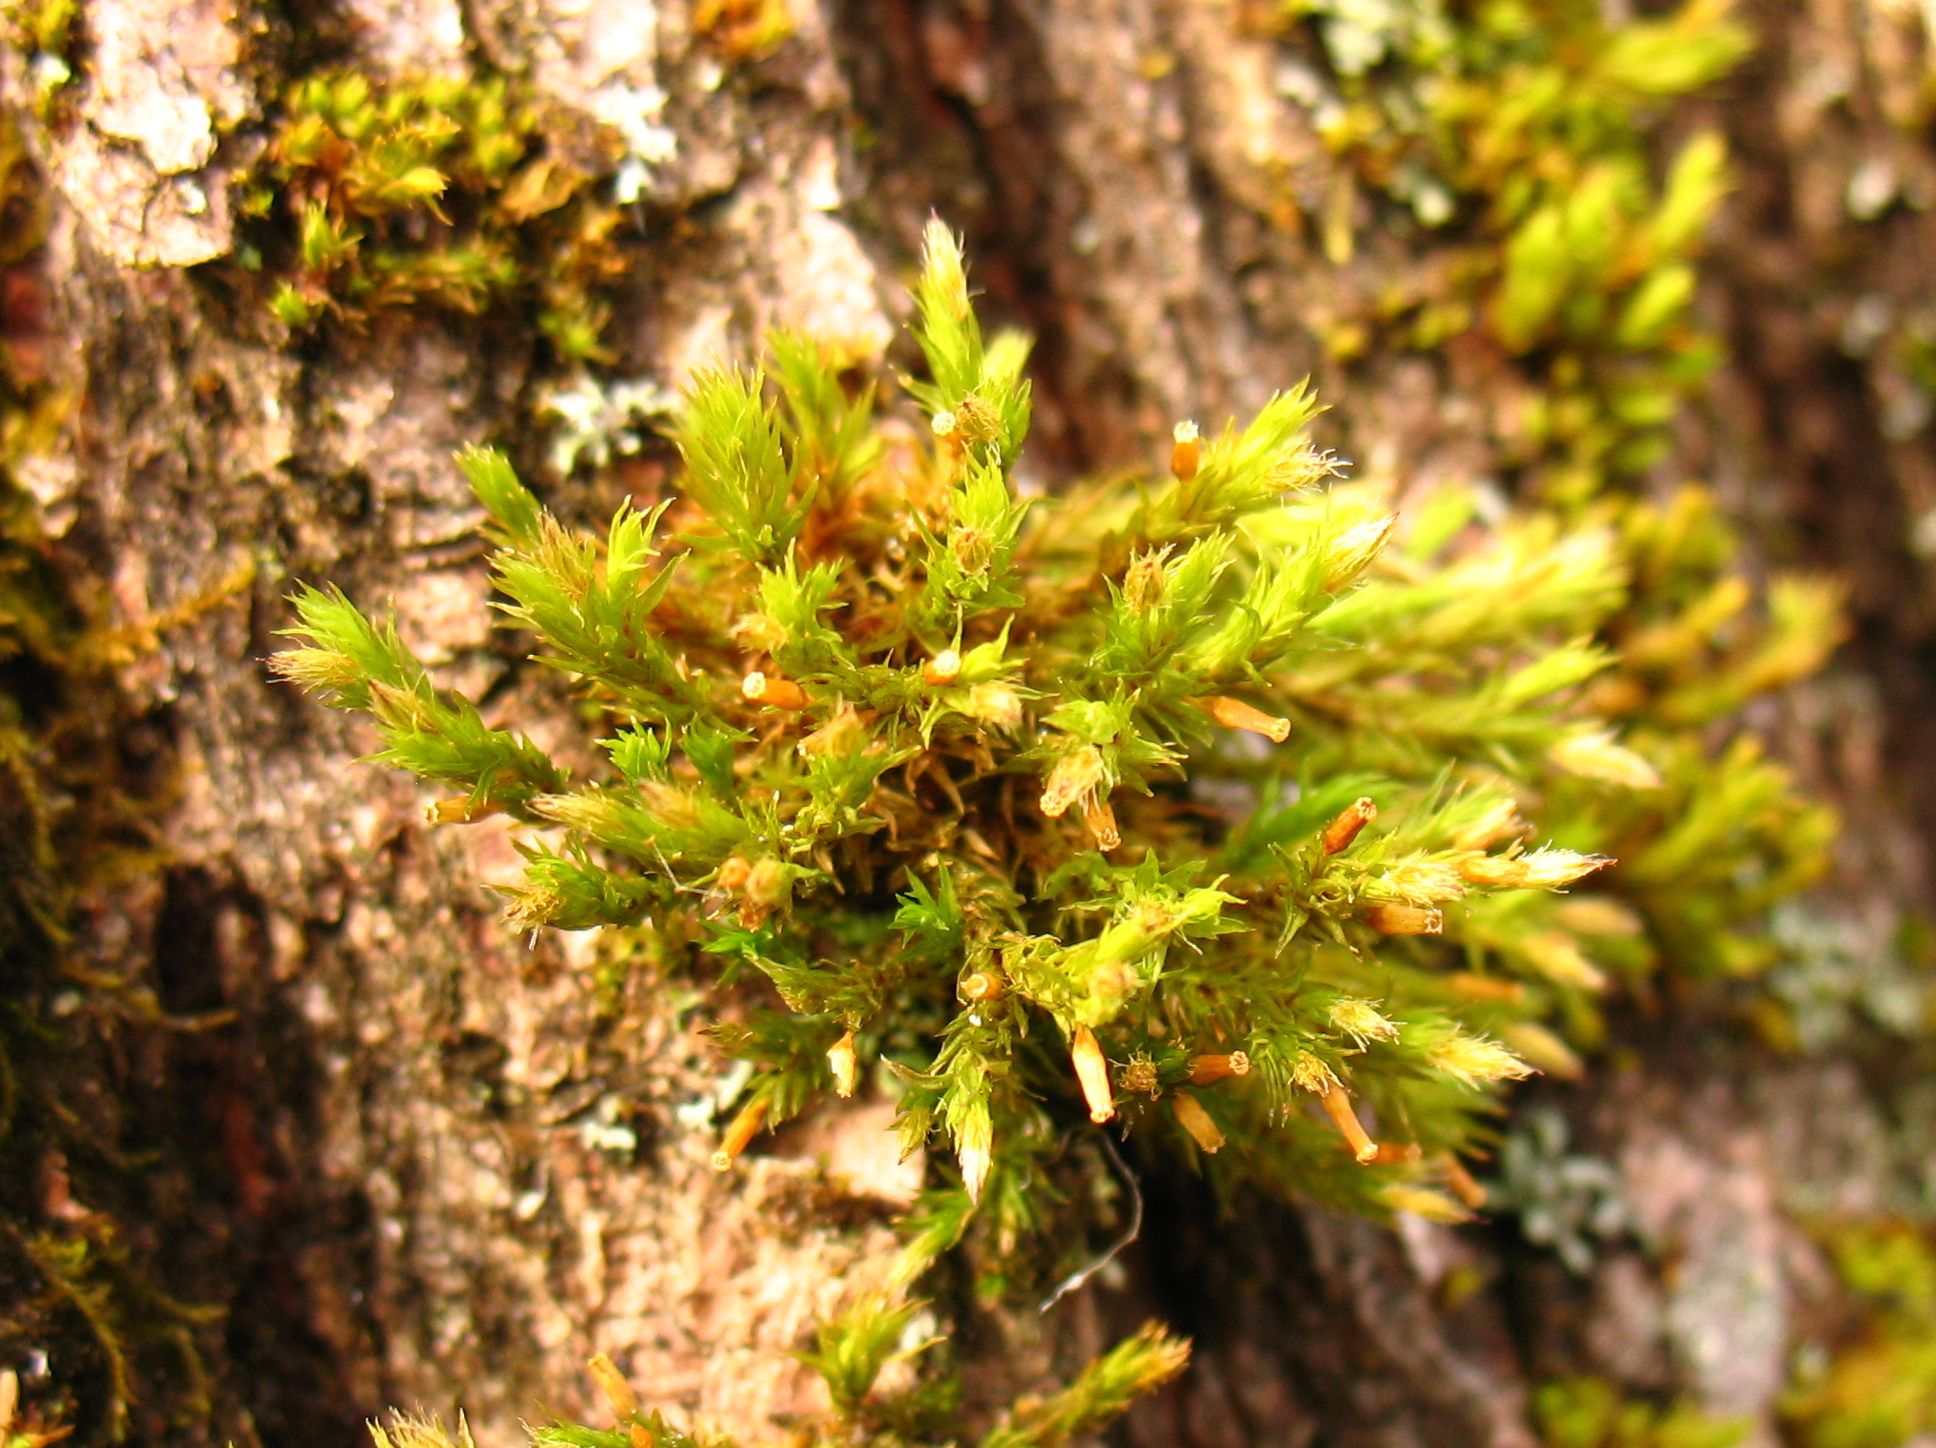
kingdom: Plantae
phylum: Bryophyta
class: Bryopsida
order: Orthotrichales
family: Orthotrichaceae
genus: Lewinskya
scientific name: Lewinskya affinis
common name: Wood bristle-moss
